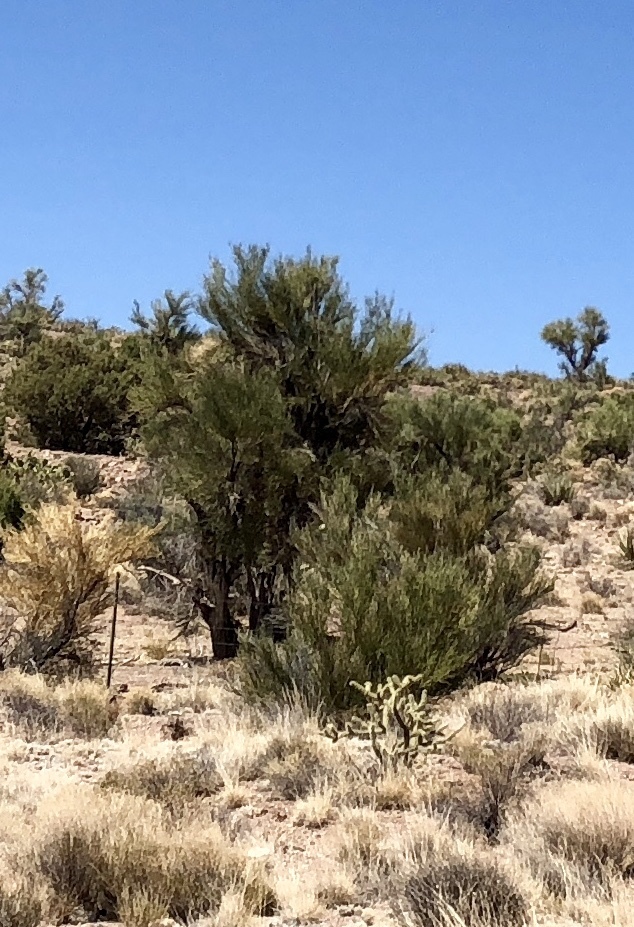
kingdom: Plantae
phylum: Tracheophyta
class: Magnoliopsida
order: Celastrales
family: Celastraceae
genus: Canotia
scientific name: Canotia holacantha
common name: Crucifixion thorns
